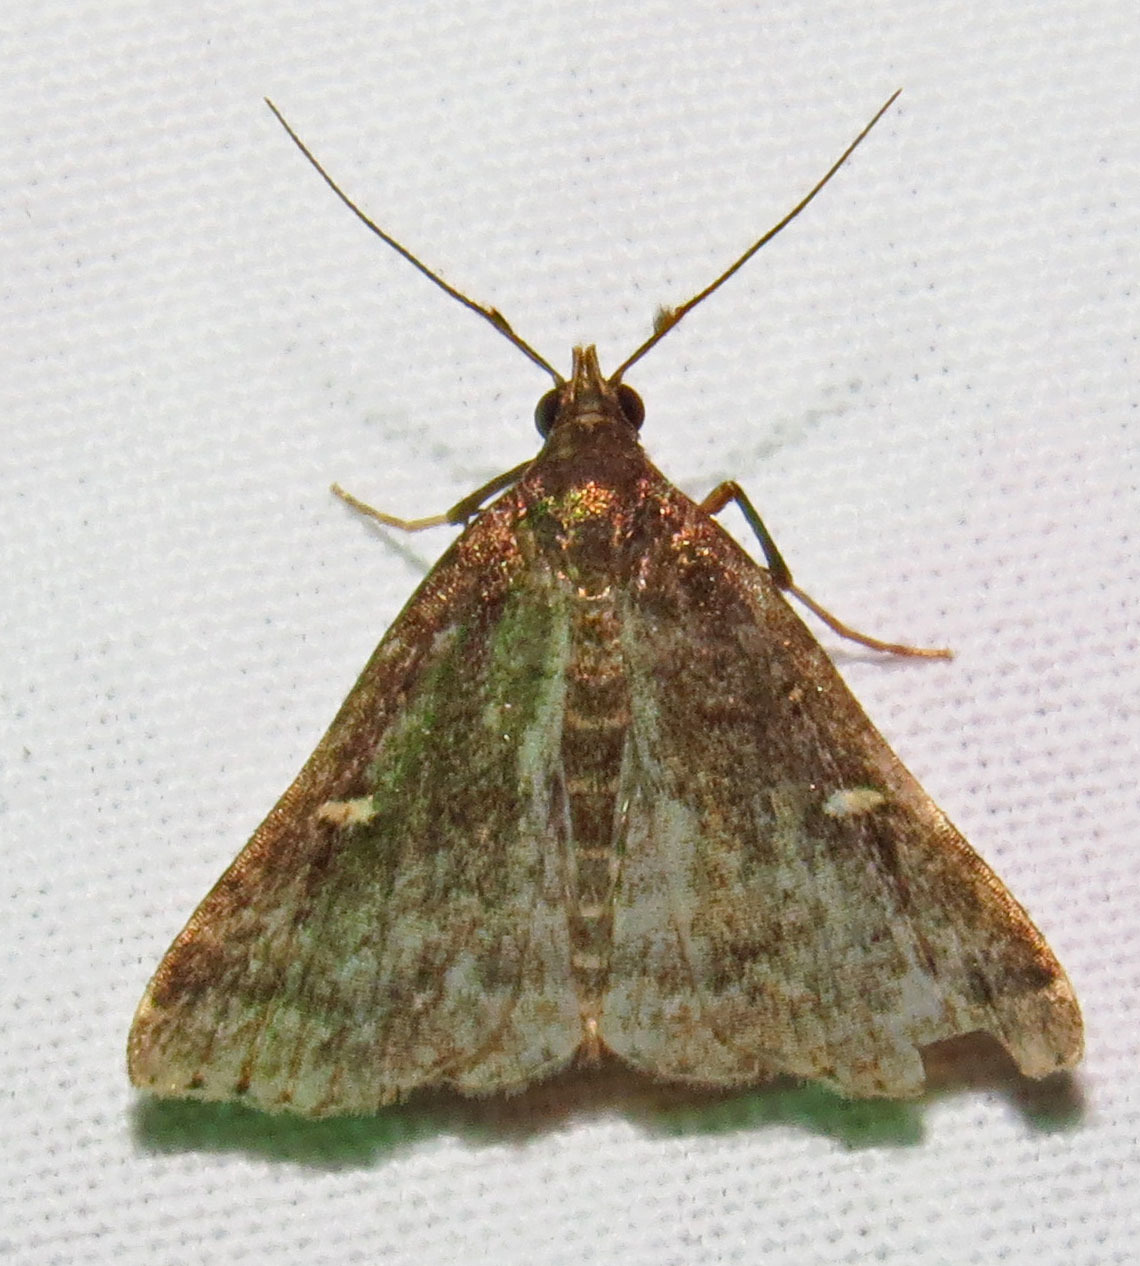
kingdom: Animalia
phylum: Arthropoda
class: Insecta
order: Lepidoptera
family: Erebidae
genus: Tetanolita
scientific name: Tetanolita mynesalis
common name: Smoky tetanolita moth
